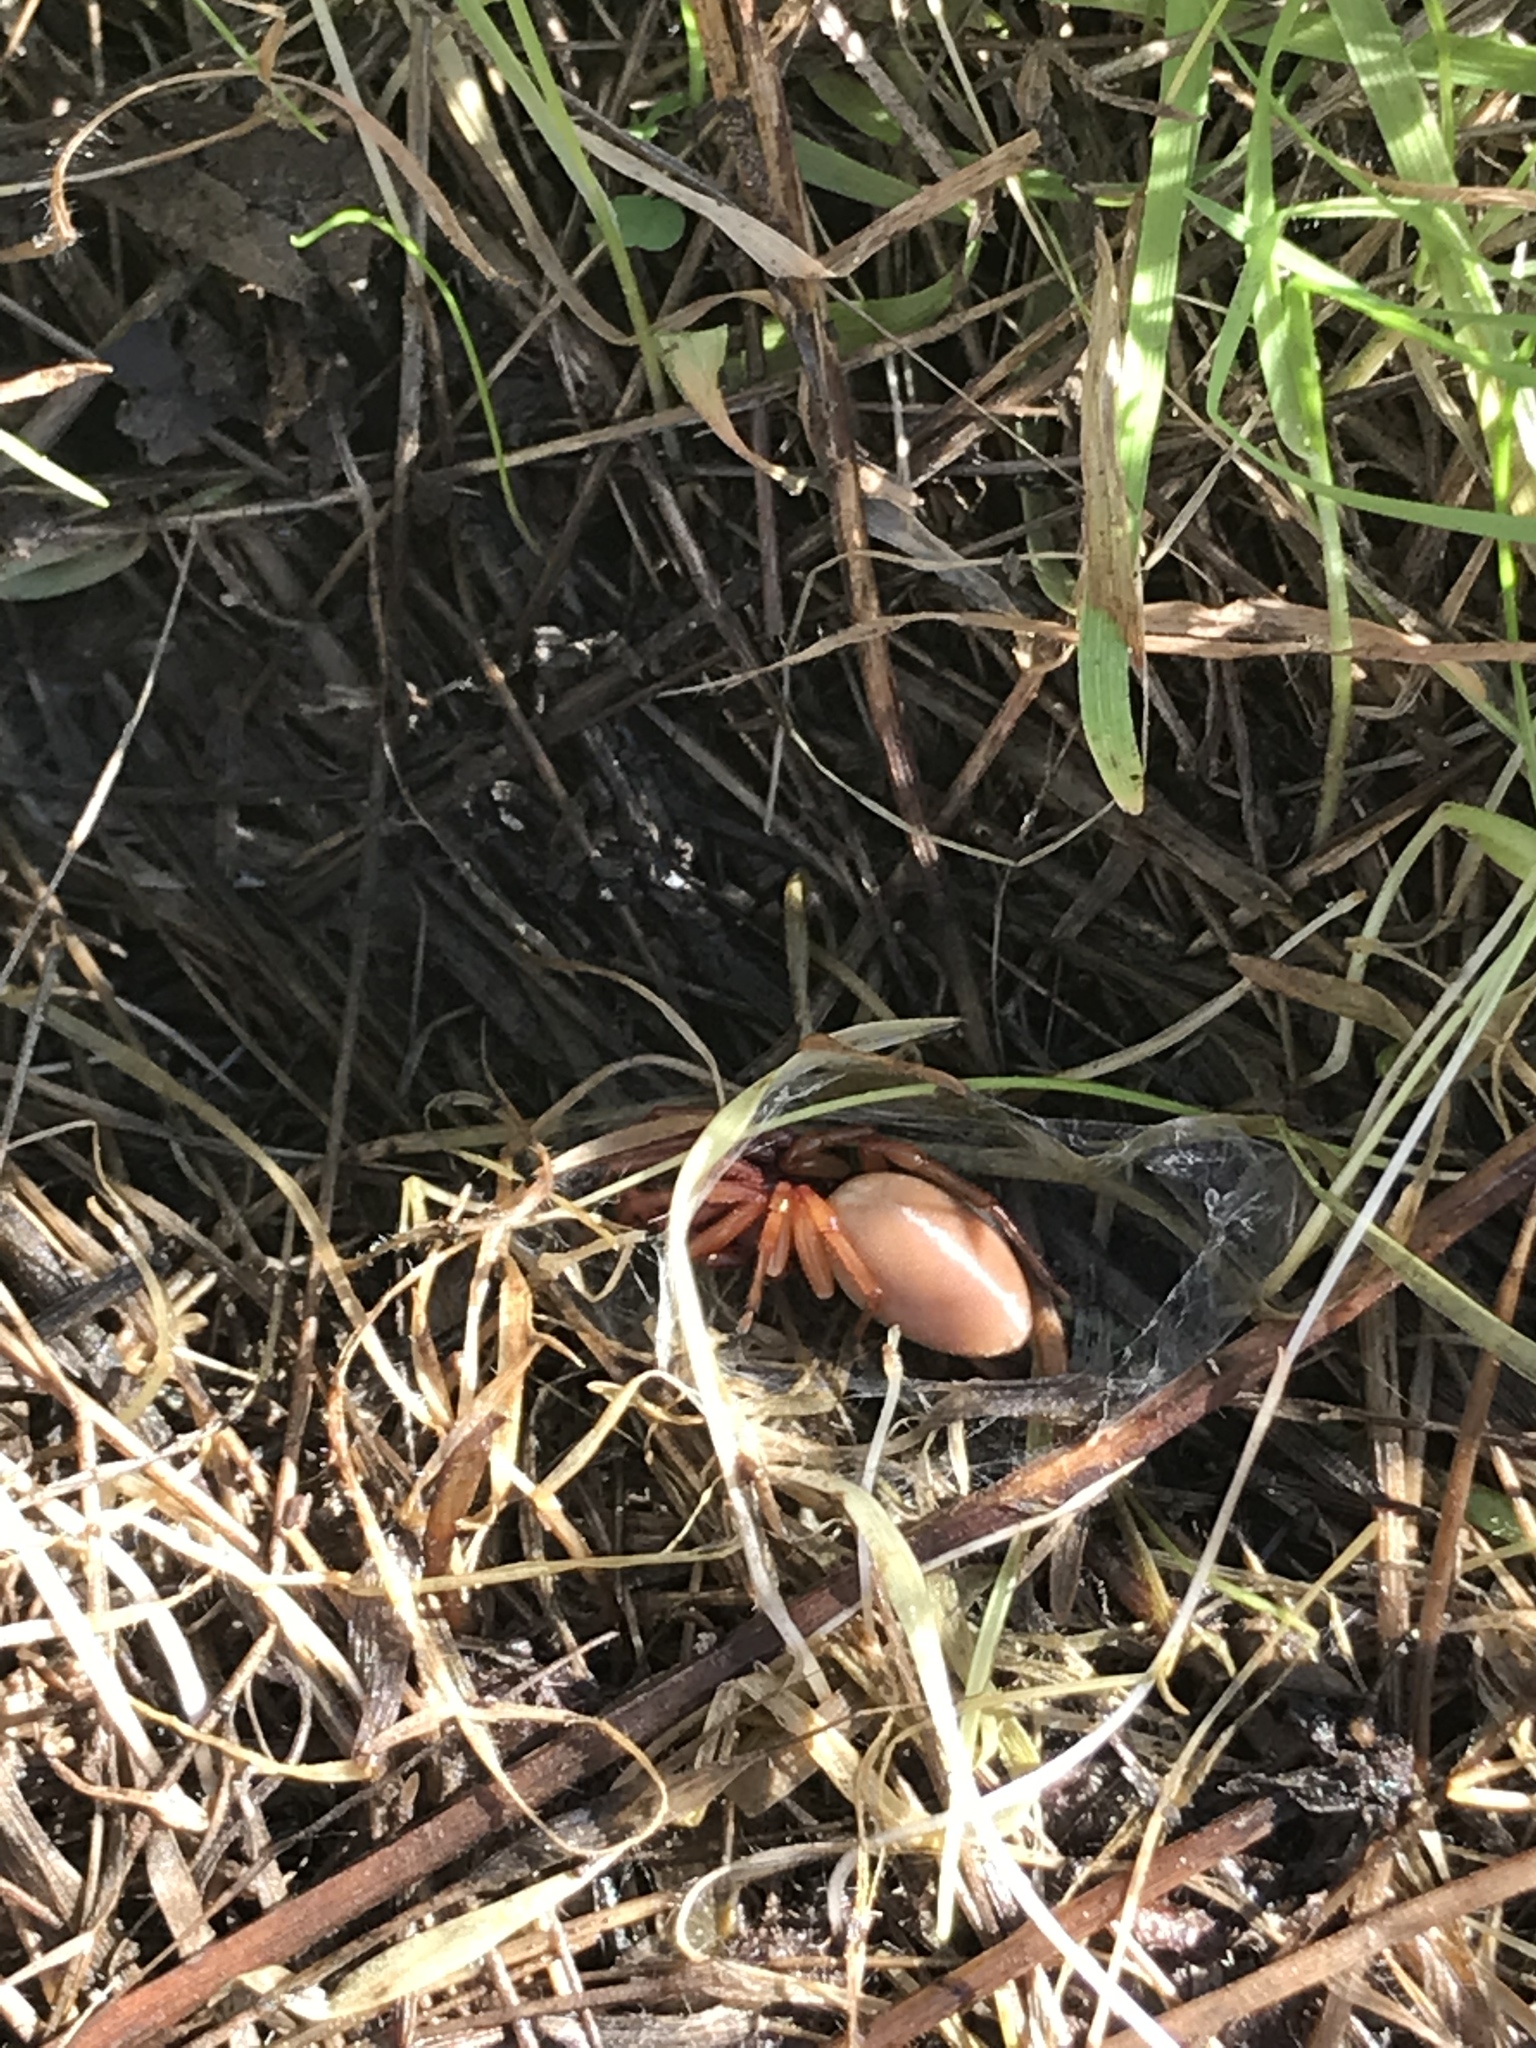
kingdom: Animalia
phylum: Arthropoda
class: Arachnida
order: Araneae
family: Dysderidae
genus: Dysdera
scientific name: Dysdera crocata
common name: Woodlouse spider
